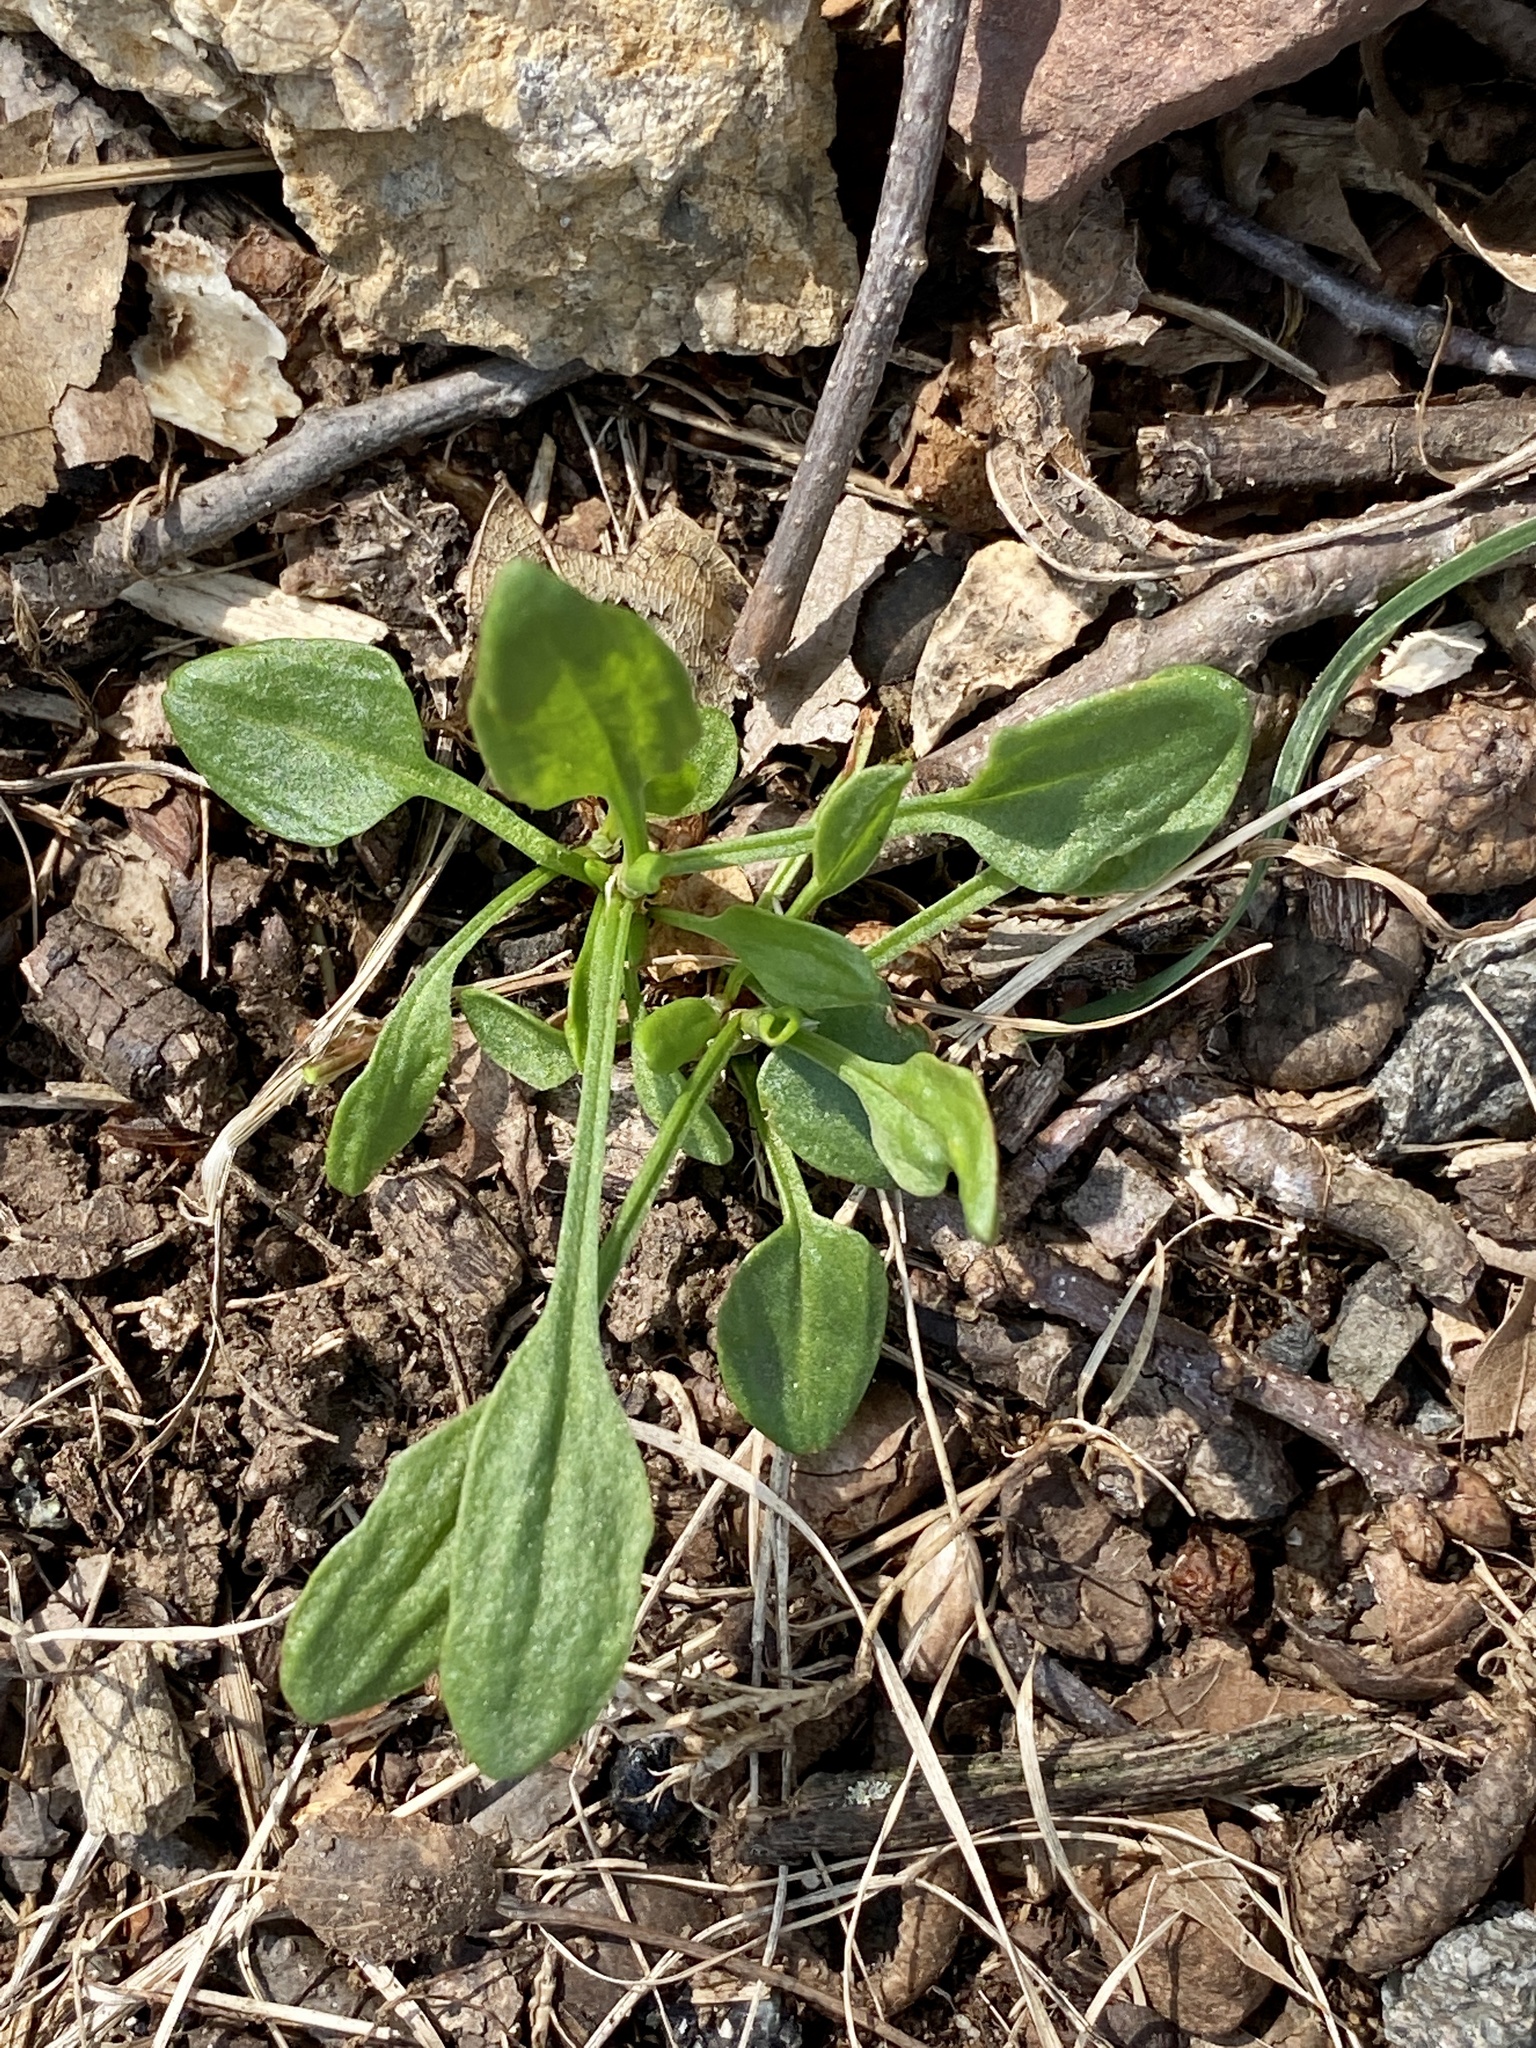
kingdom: Plantae
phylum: Tracheophyta
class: Magnoliopsida
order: Caryophyllales
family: Polygonaceae
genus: Rumex
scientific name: Rumex acetosella
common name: Common sheep sorrel
